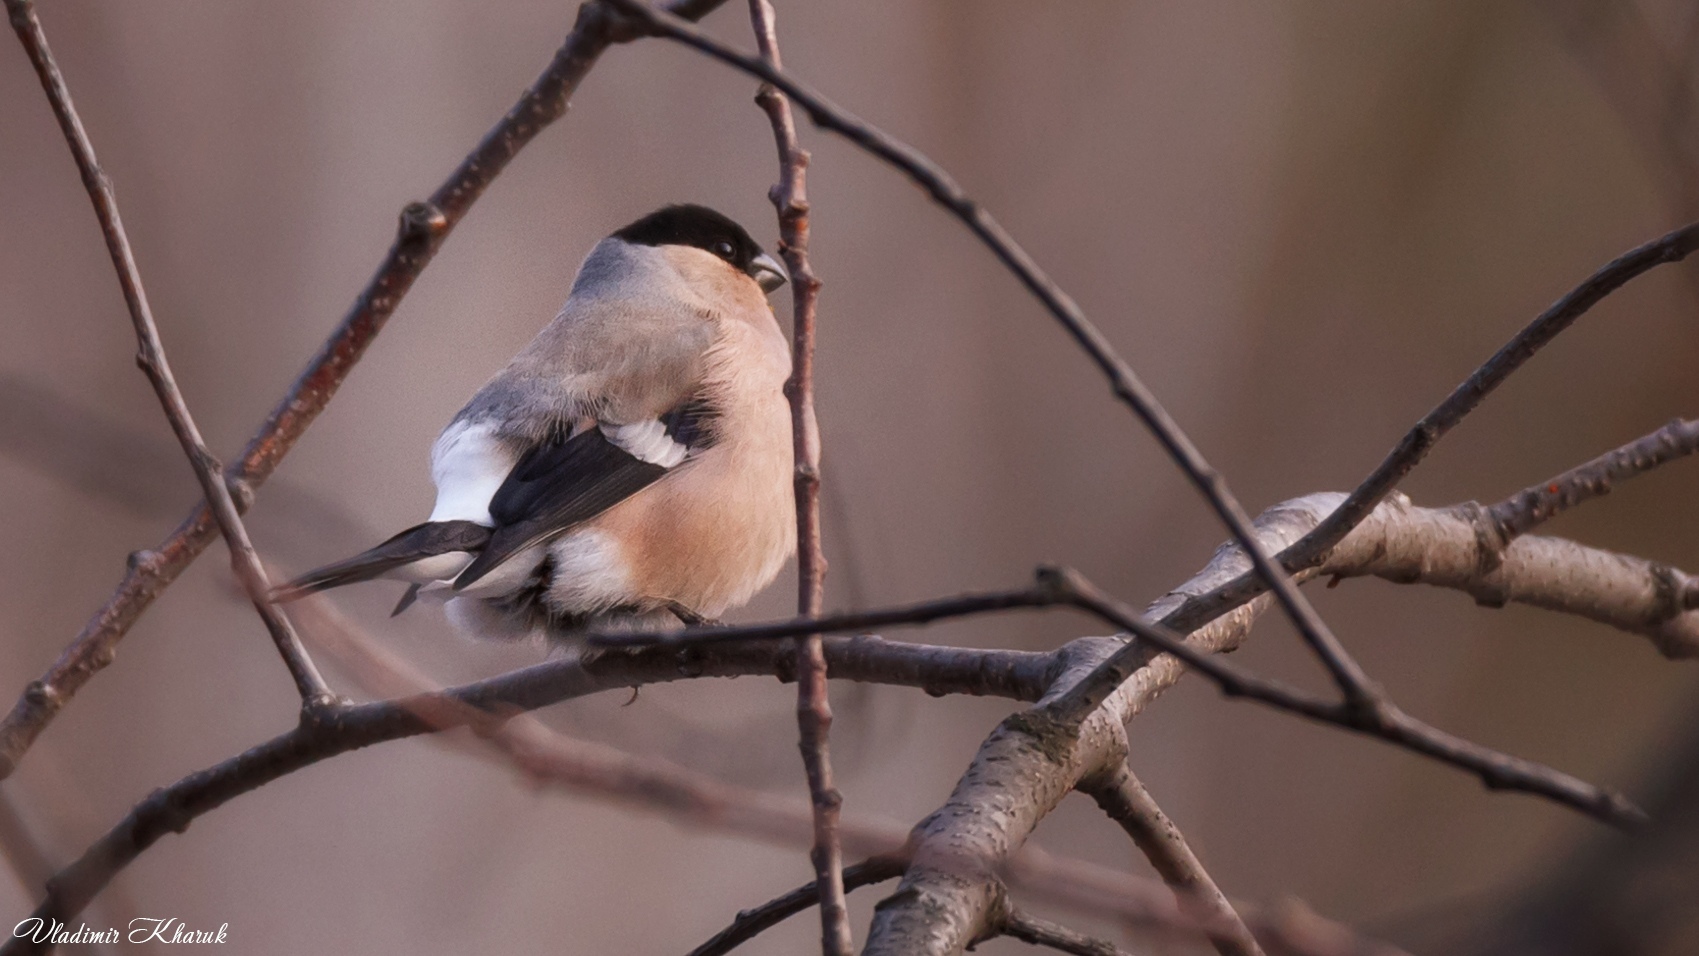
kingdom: Animalia
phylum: Chordata
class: Aves
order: Passeriformes
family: Fringillidae
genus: Pyrrhula
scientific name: Pyrrhula pyrrhula
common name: Eurasian bullfinch
